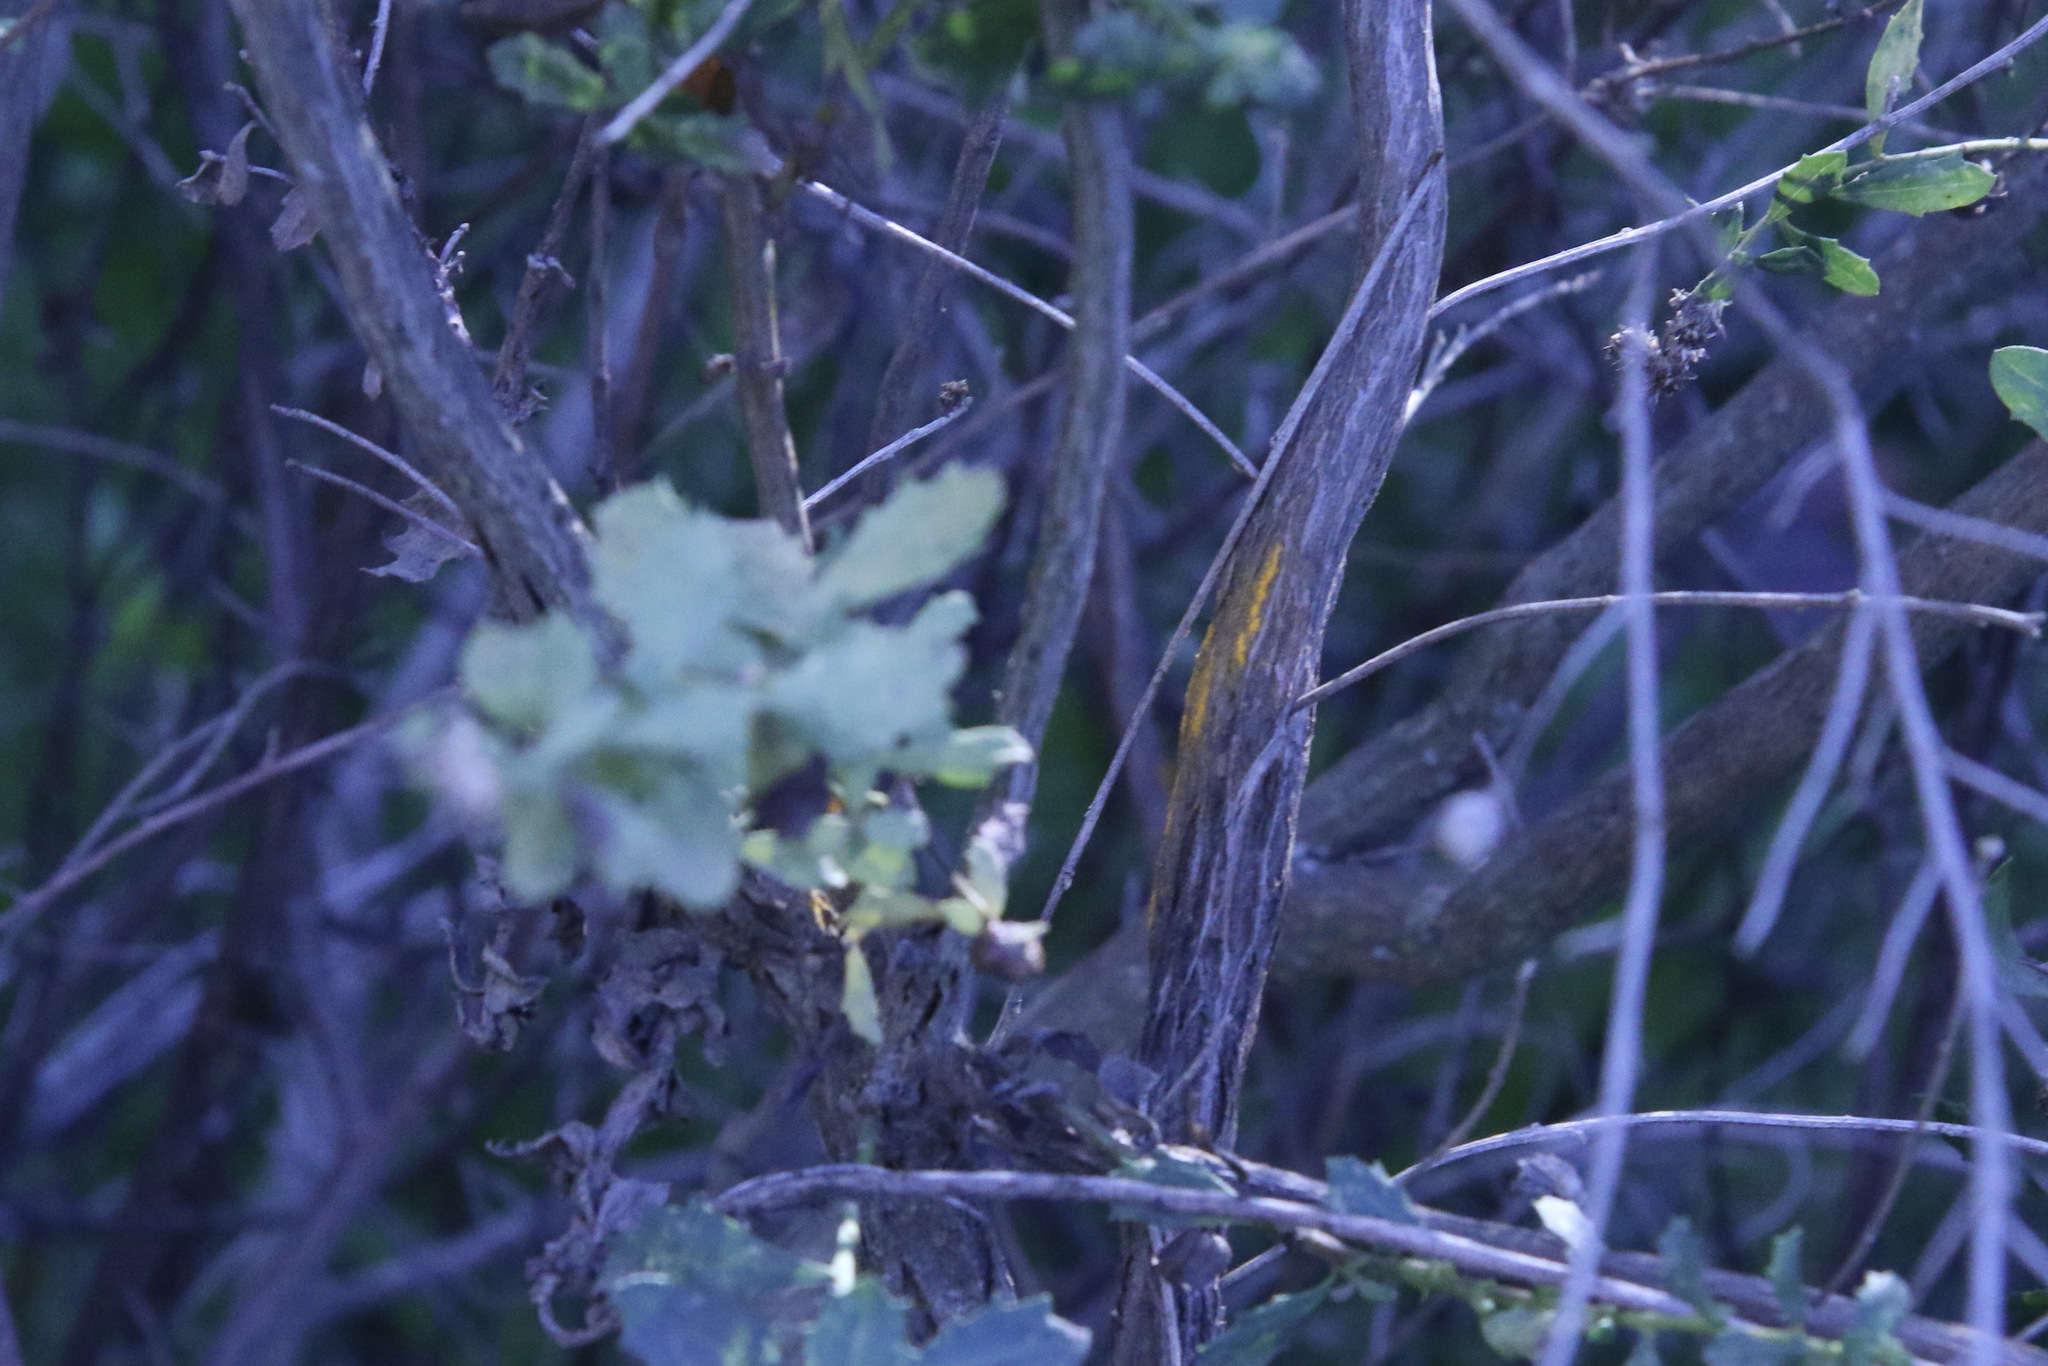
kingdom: Fungi
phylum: Basidiomycota
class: Pucciniomycetes
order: Pucciniales
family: Pucciniaceae
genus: Eriosporangium
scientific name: Eriosporangium evadens
